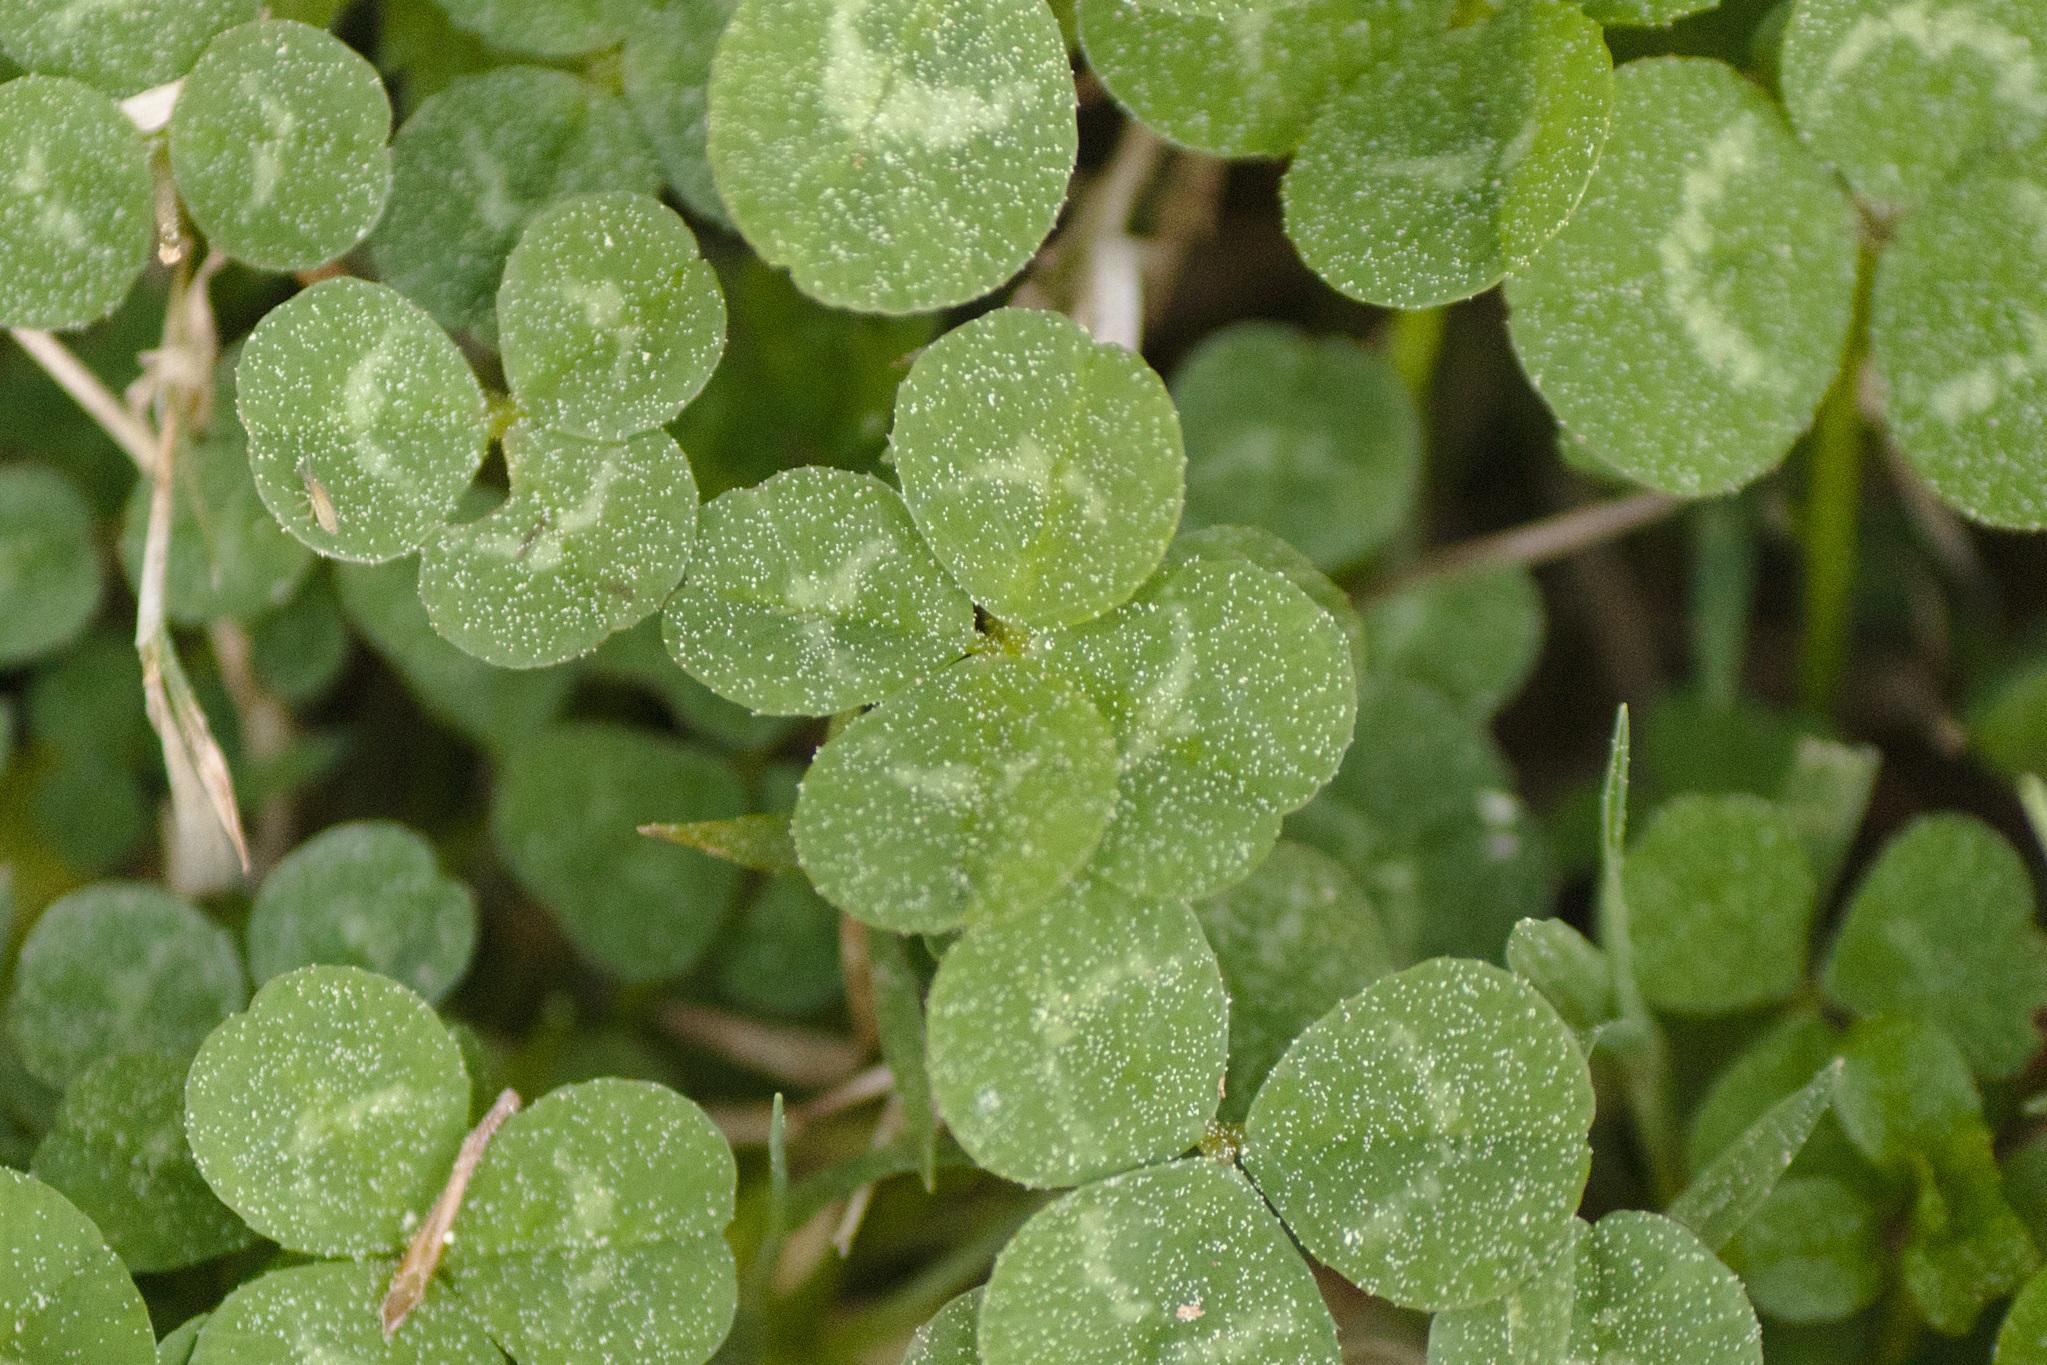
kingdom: Plantae
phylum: Tracheophyta
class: Magnoliopsida
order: Fabales
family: Fabaceae
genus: Trifolium
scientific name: Trifolium repens
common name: White clover
